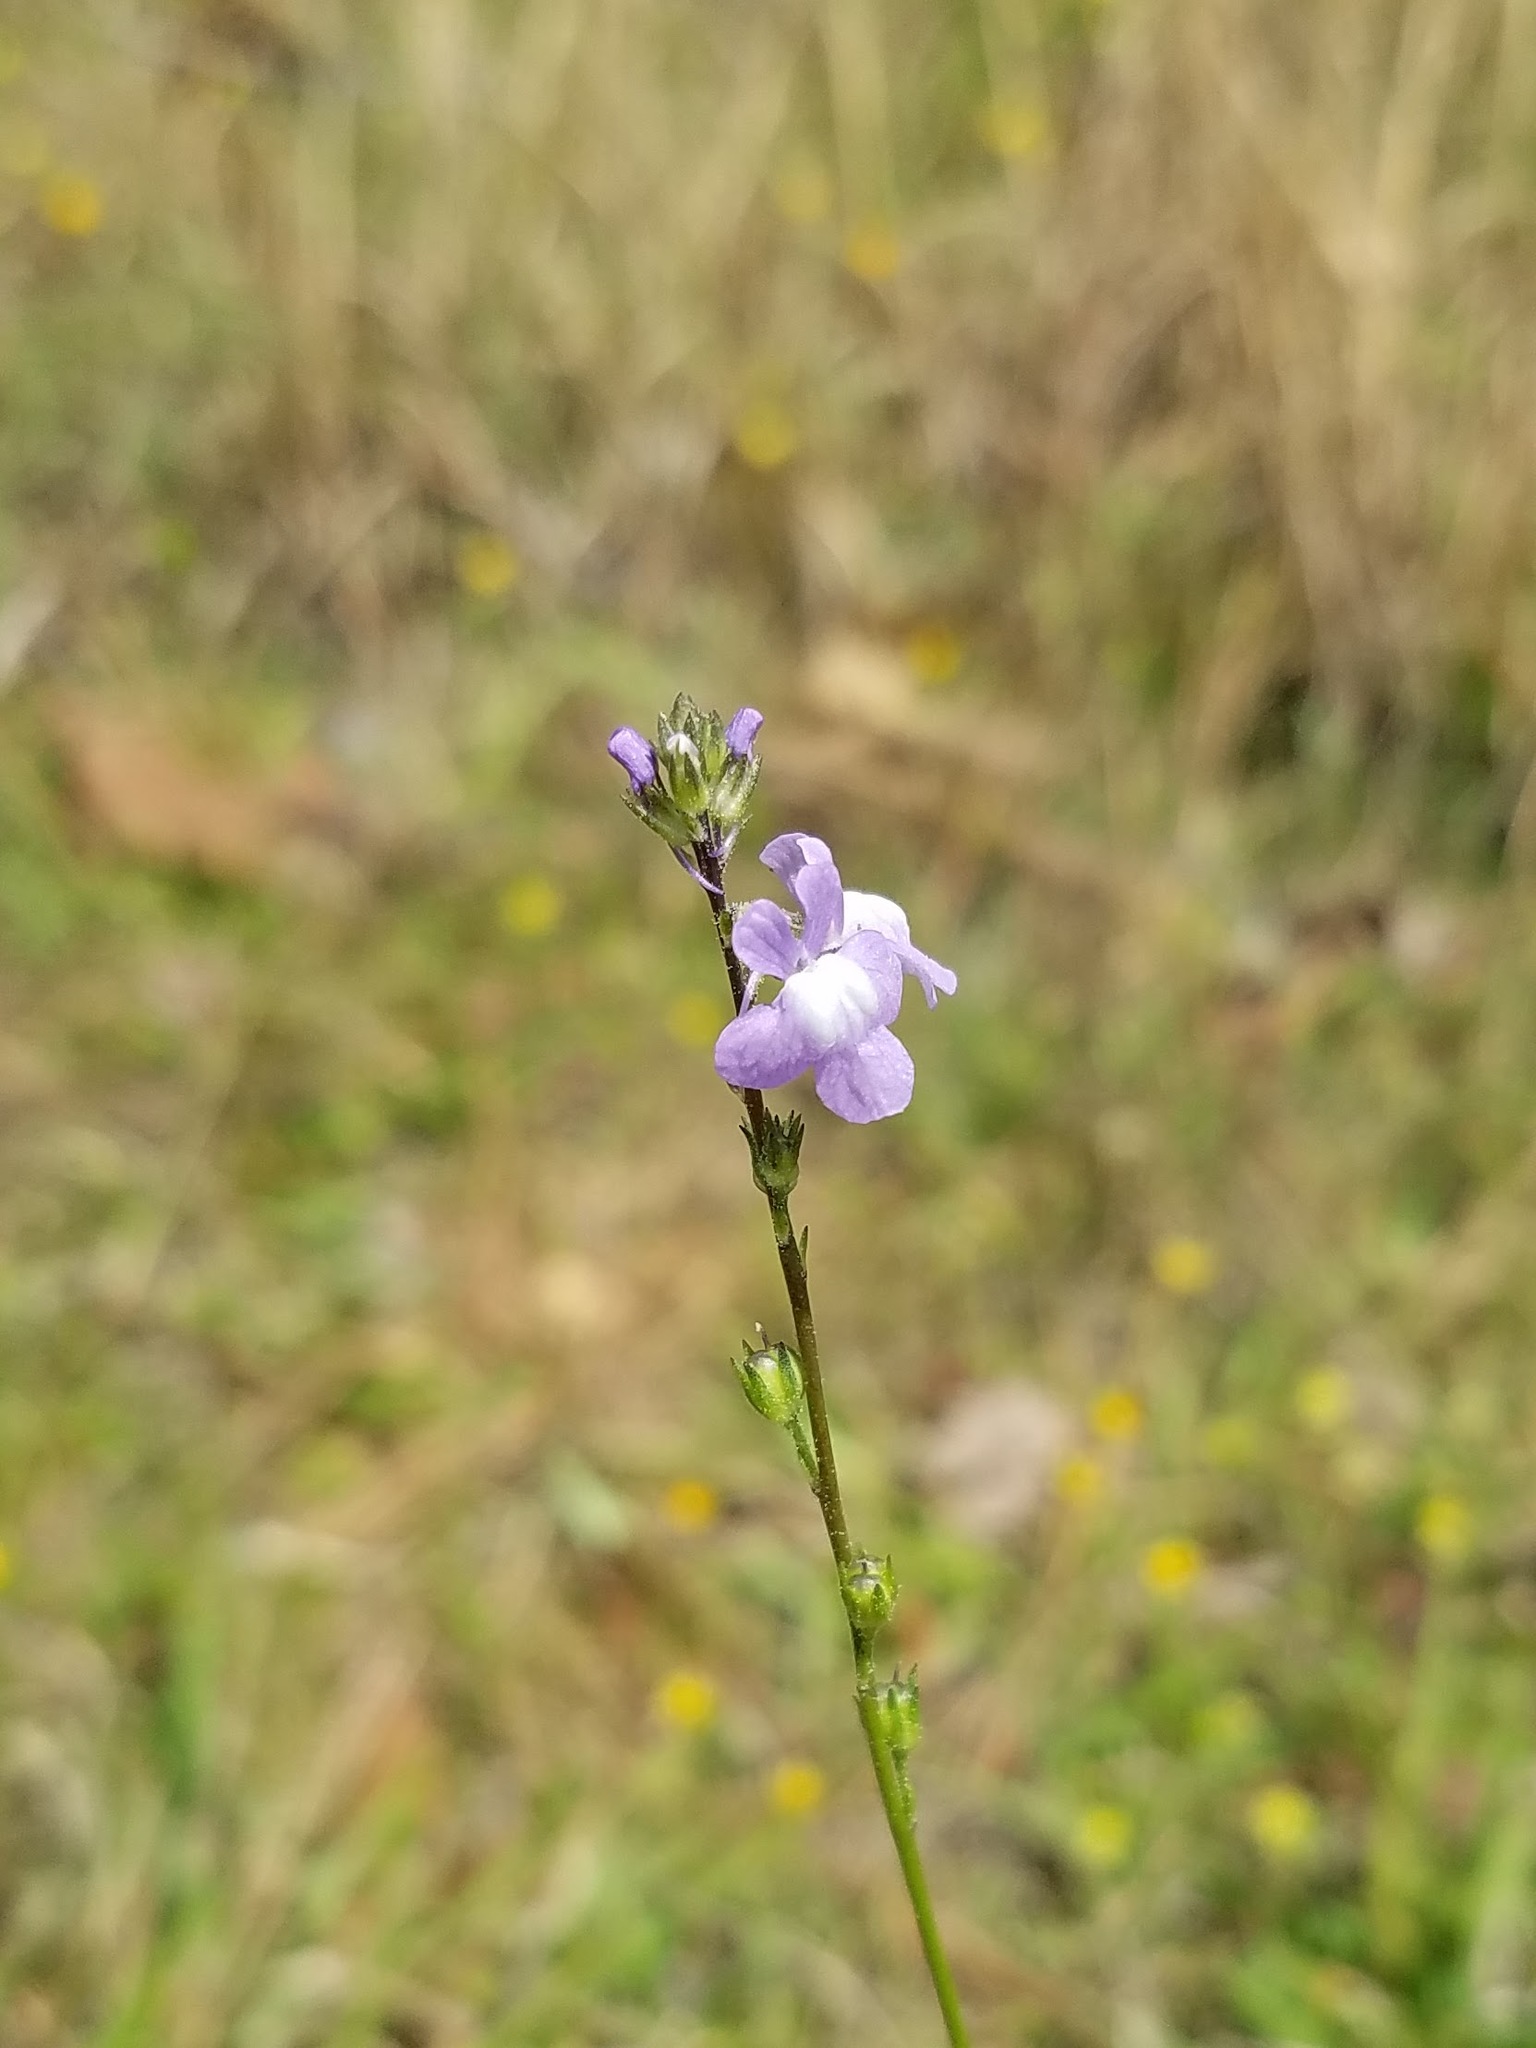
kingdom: Plantae
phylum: Tracheophyta
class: Magnoliopsida
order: Lamiales
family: Plantaginaceae
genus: Nuttallanthus
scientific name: Nuttallanthus canadensis
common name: Blue toadflax
